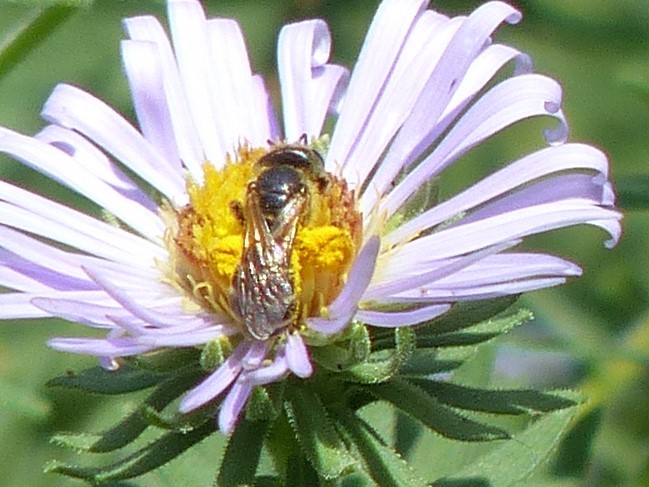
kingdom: Animalia
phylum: Arthropoda
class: Insecta
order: Hymenoptera
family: Halictidae
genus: Halictus
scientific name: Halictus ligatus
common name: Ligated furrow bee
